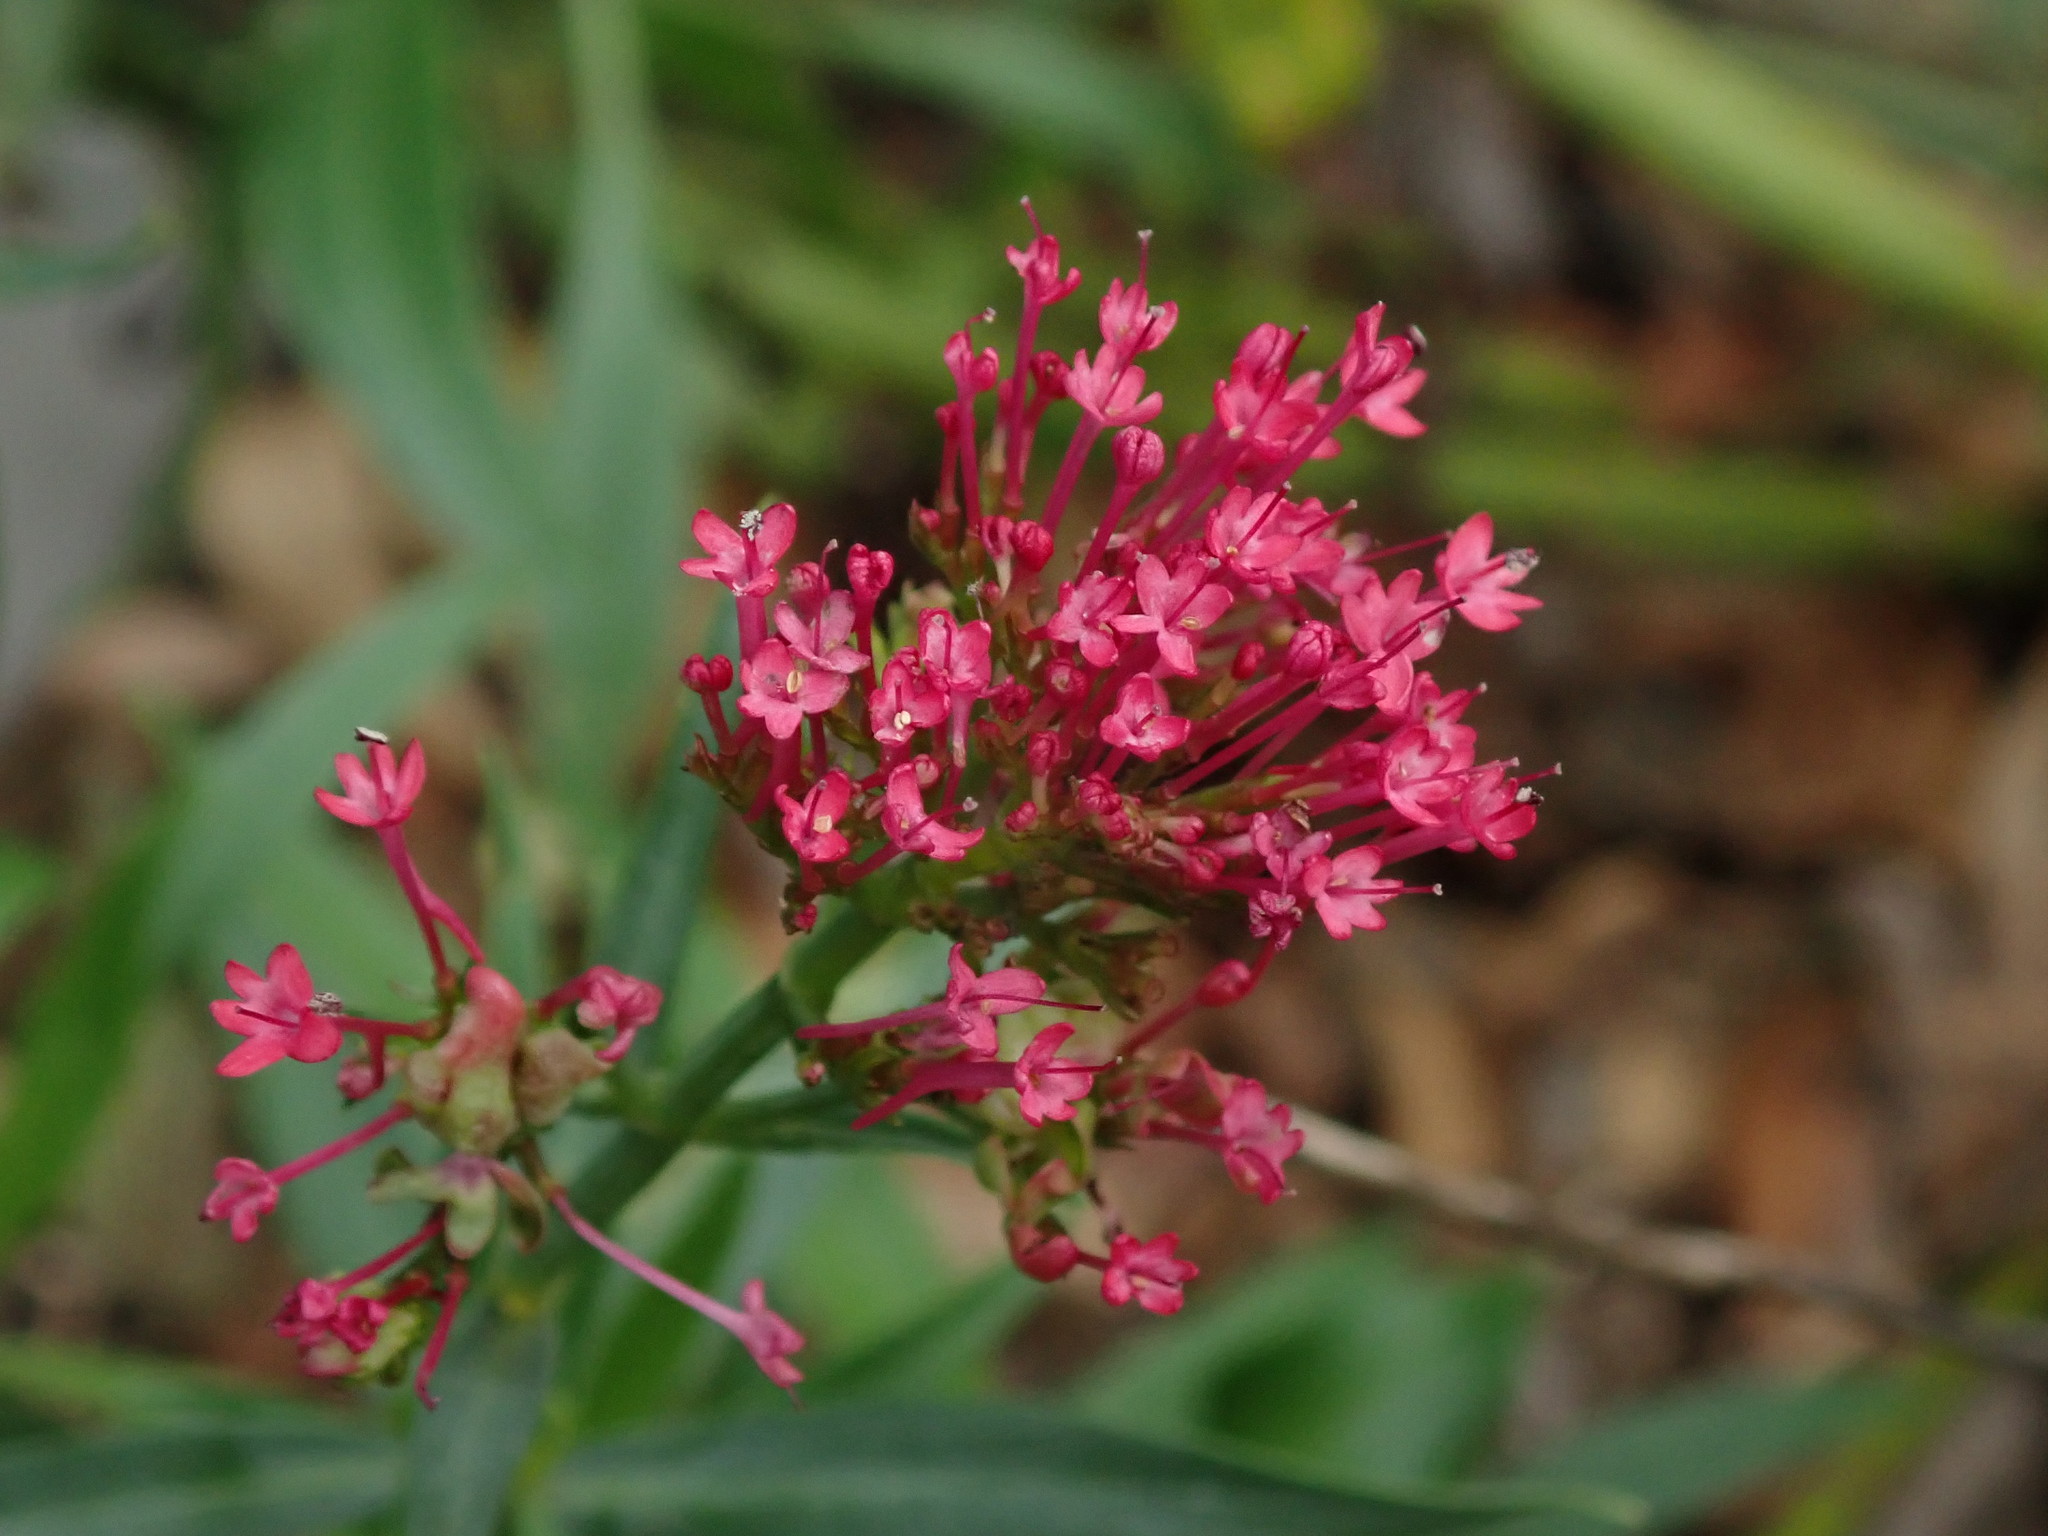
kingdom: Plantae
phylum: Tracheophyta
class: Magnoliopsida
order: Dipsacales
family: Caprifoliaceae
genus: Centranthus
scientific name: Centranthus ruber
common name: Red valerian
